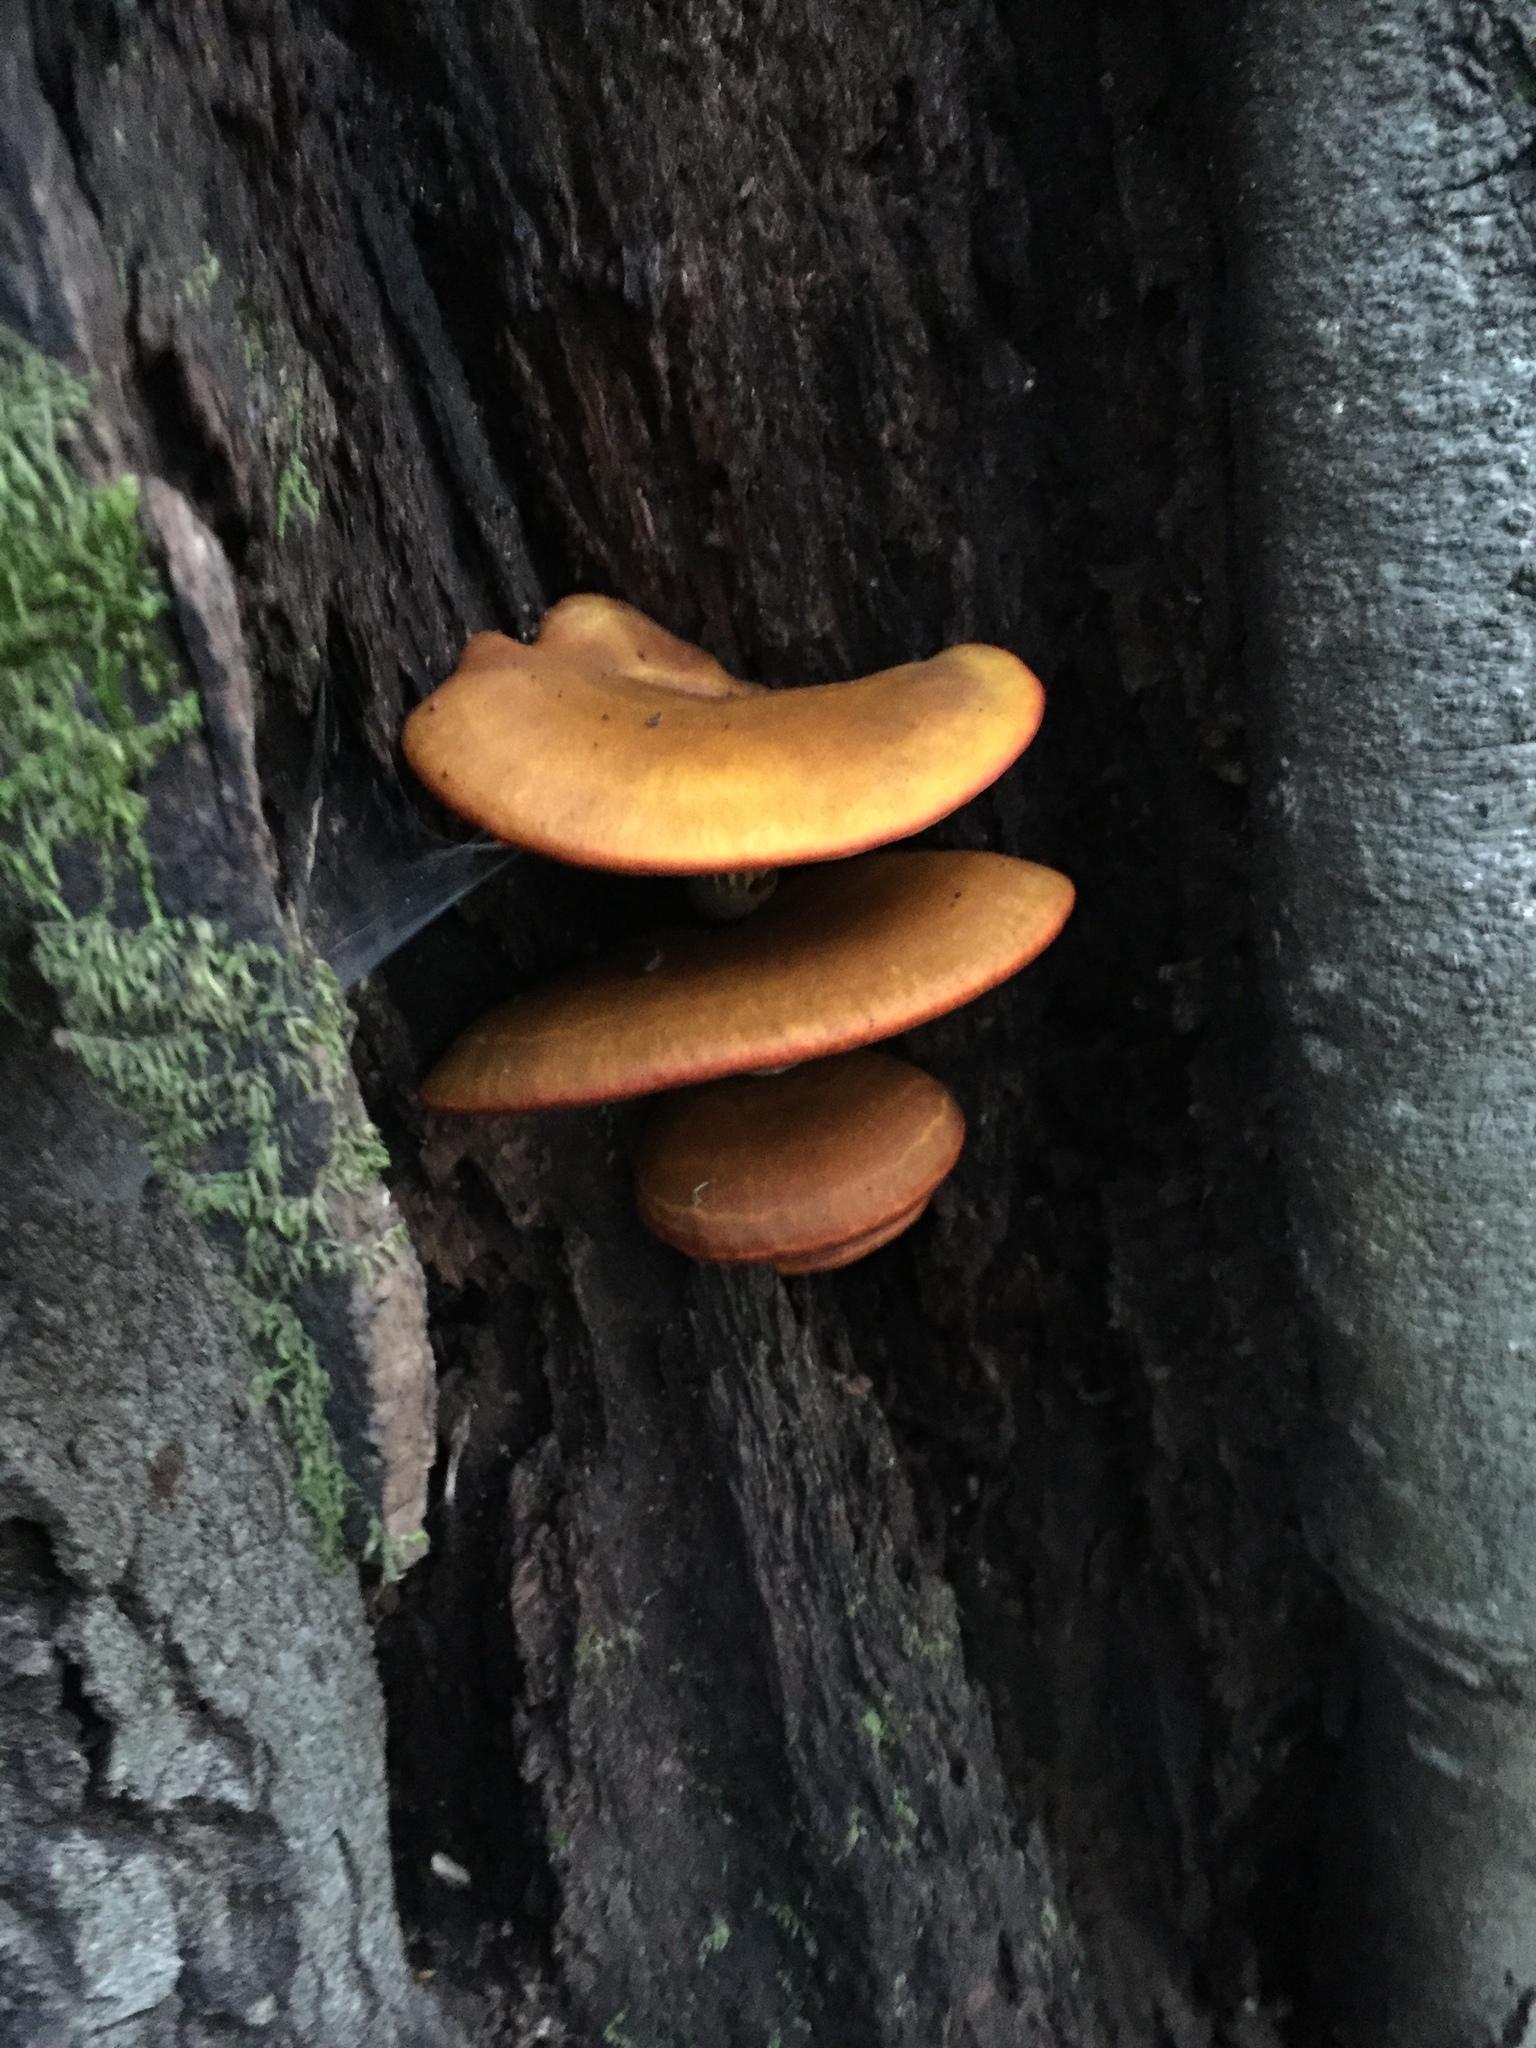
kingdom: Fungi
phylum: Basidiomycota
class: Agaricomycetes
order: Agaricales
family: Omphalotaceae
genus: Omphalotus
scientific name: Omphalotus olivascens
